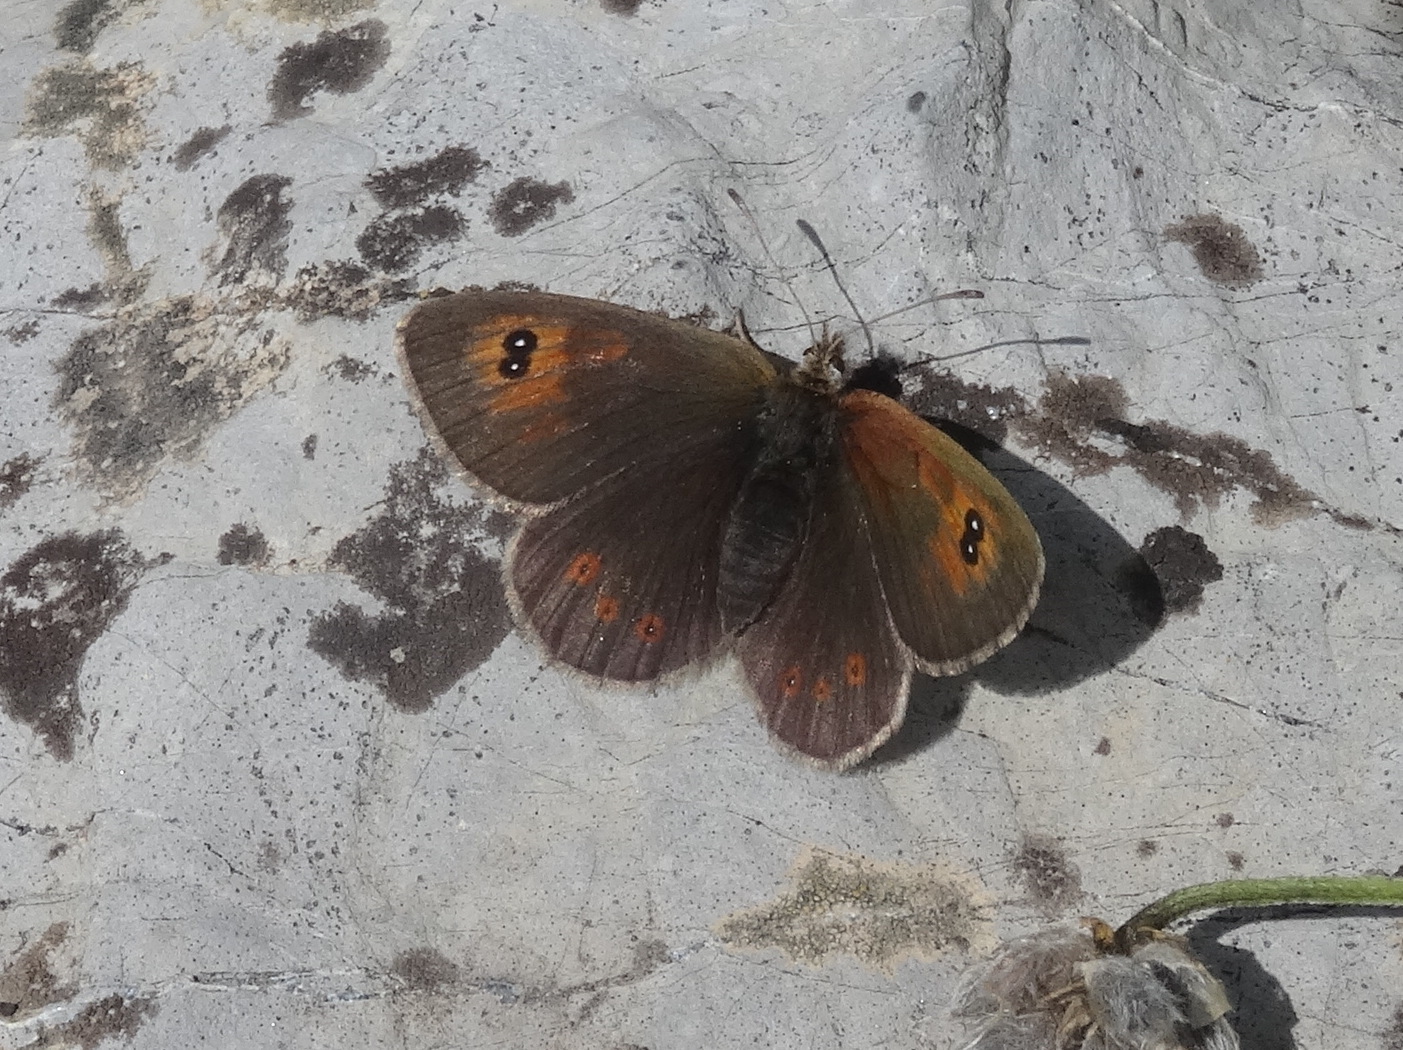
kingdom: Animalia
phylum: Arthropoda
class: Insecta
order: Lepidoptera
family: Nymphalidae
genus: Erebia
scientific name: Erebia cassioides
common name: Common brassy ringlet
